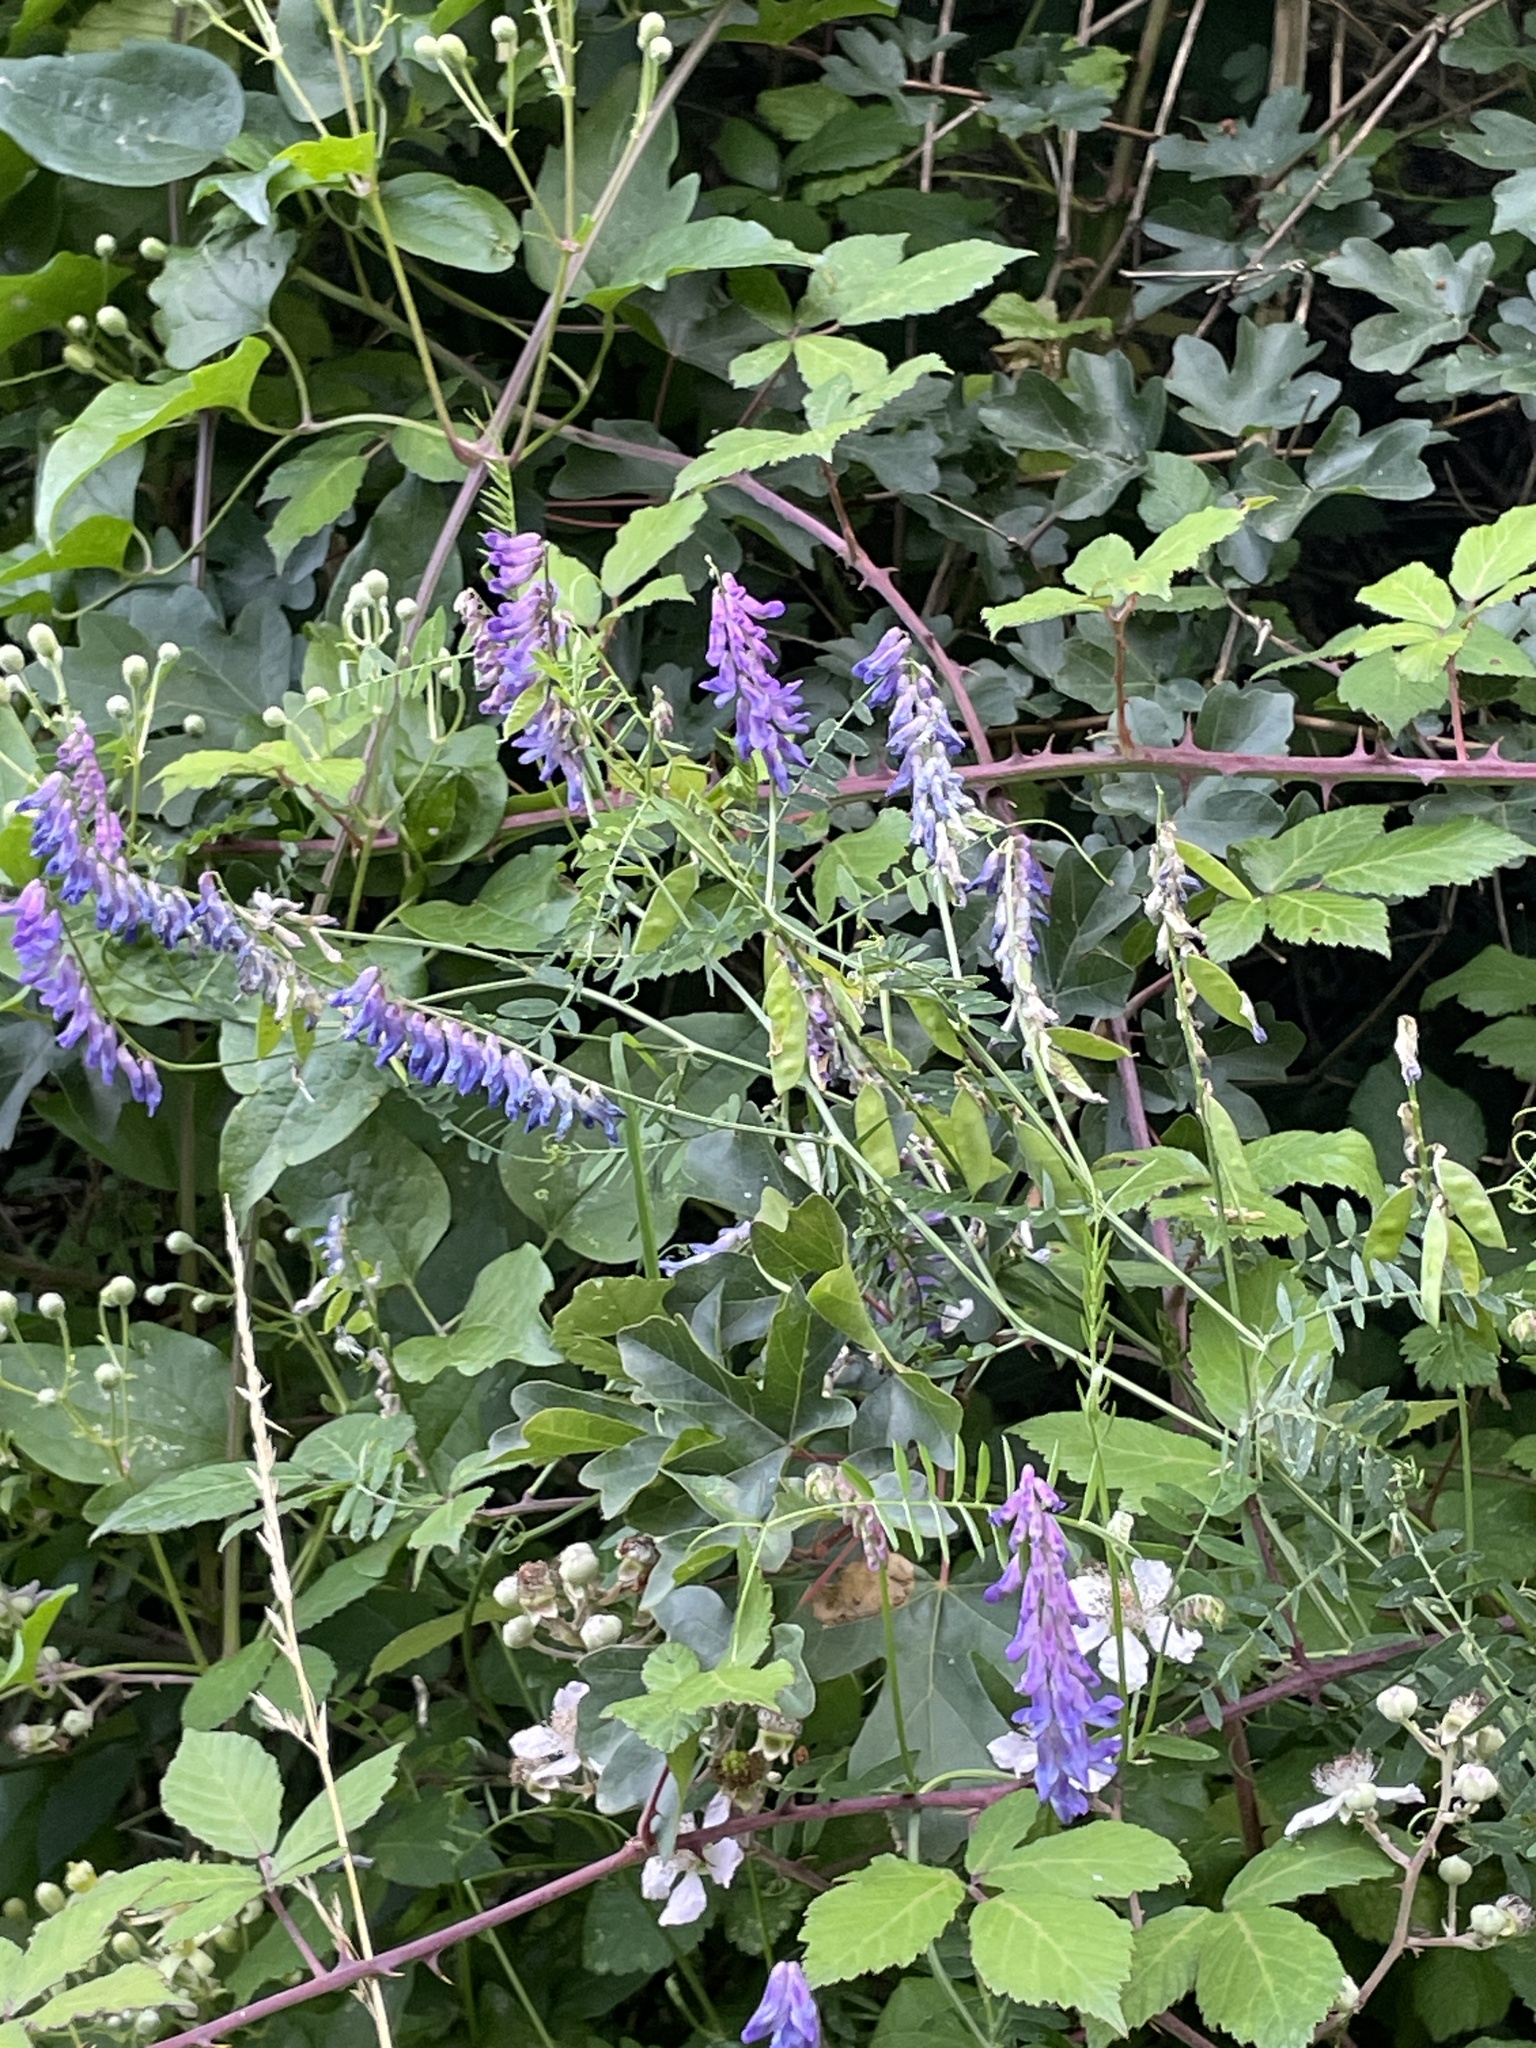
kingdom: Plantae
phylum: Tracheophyta
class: Magnoliopsida
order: Fabales
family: Fabaceae
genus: Vicia
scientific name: Vicia cracca
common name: Bird vetch
